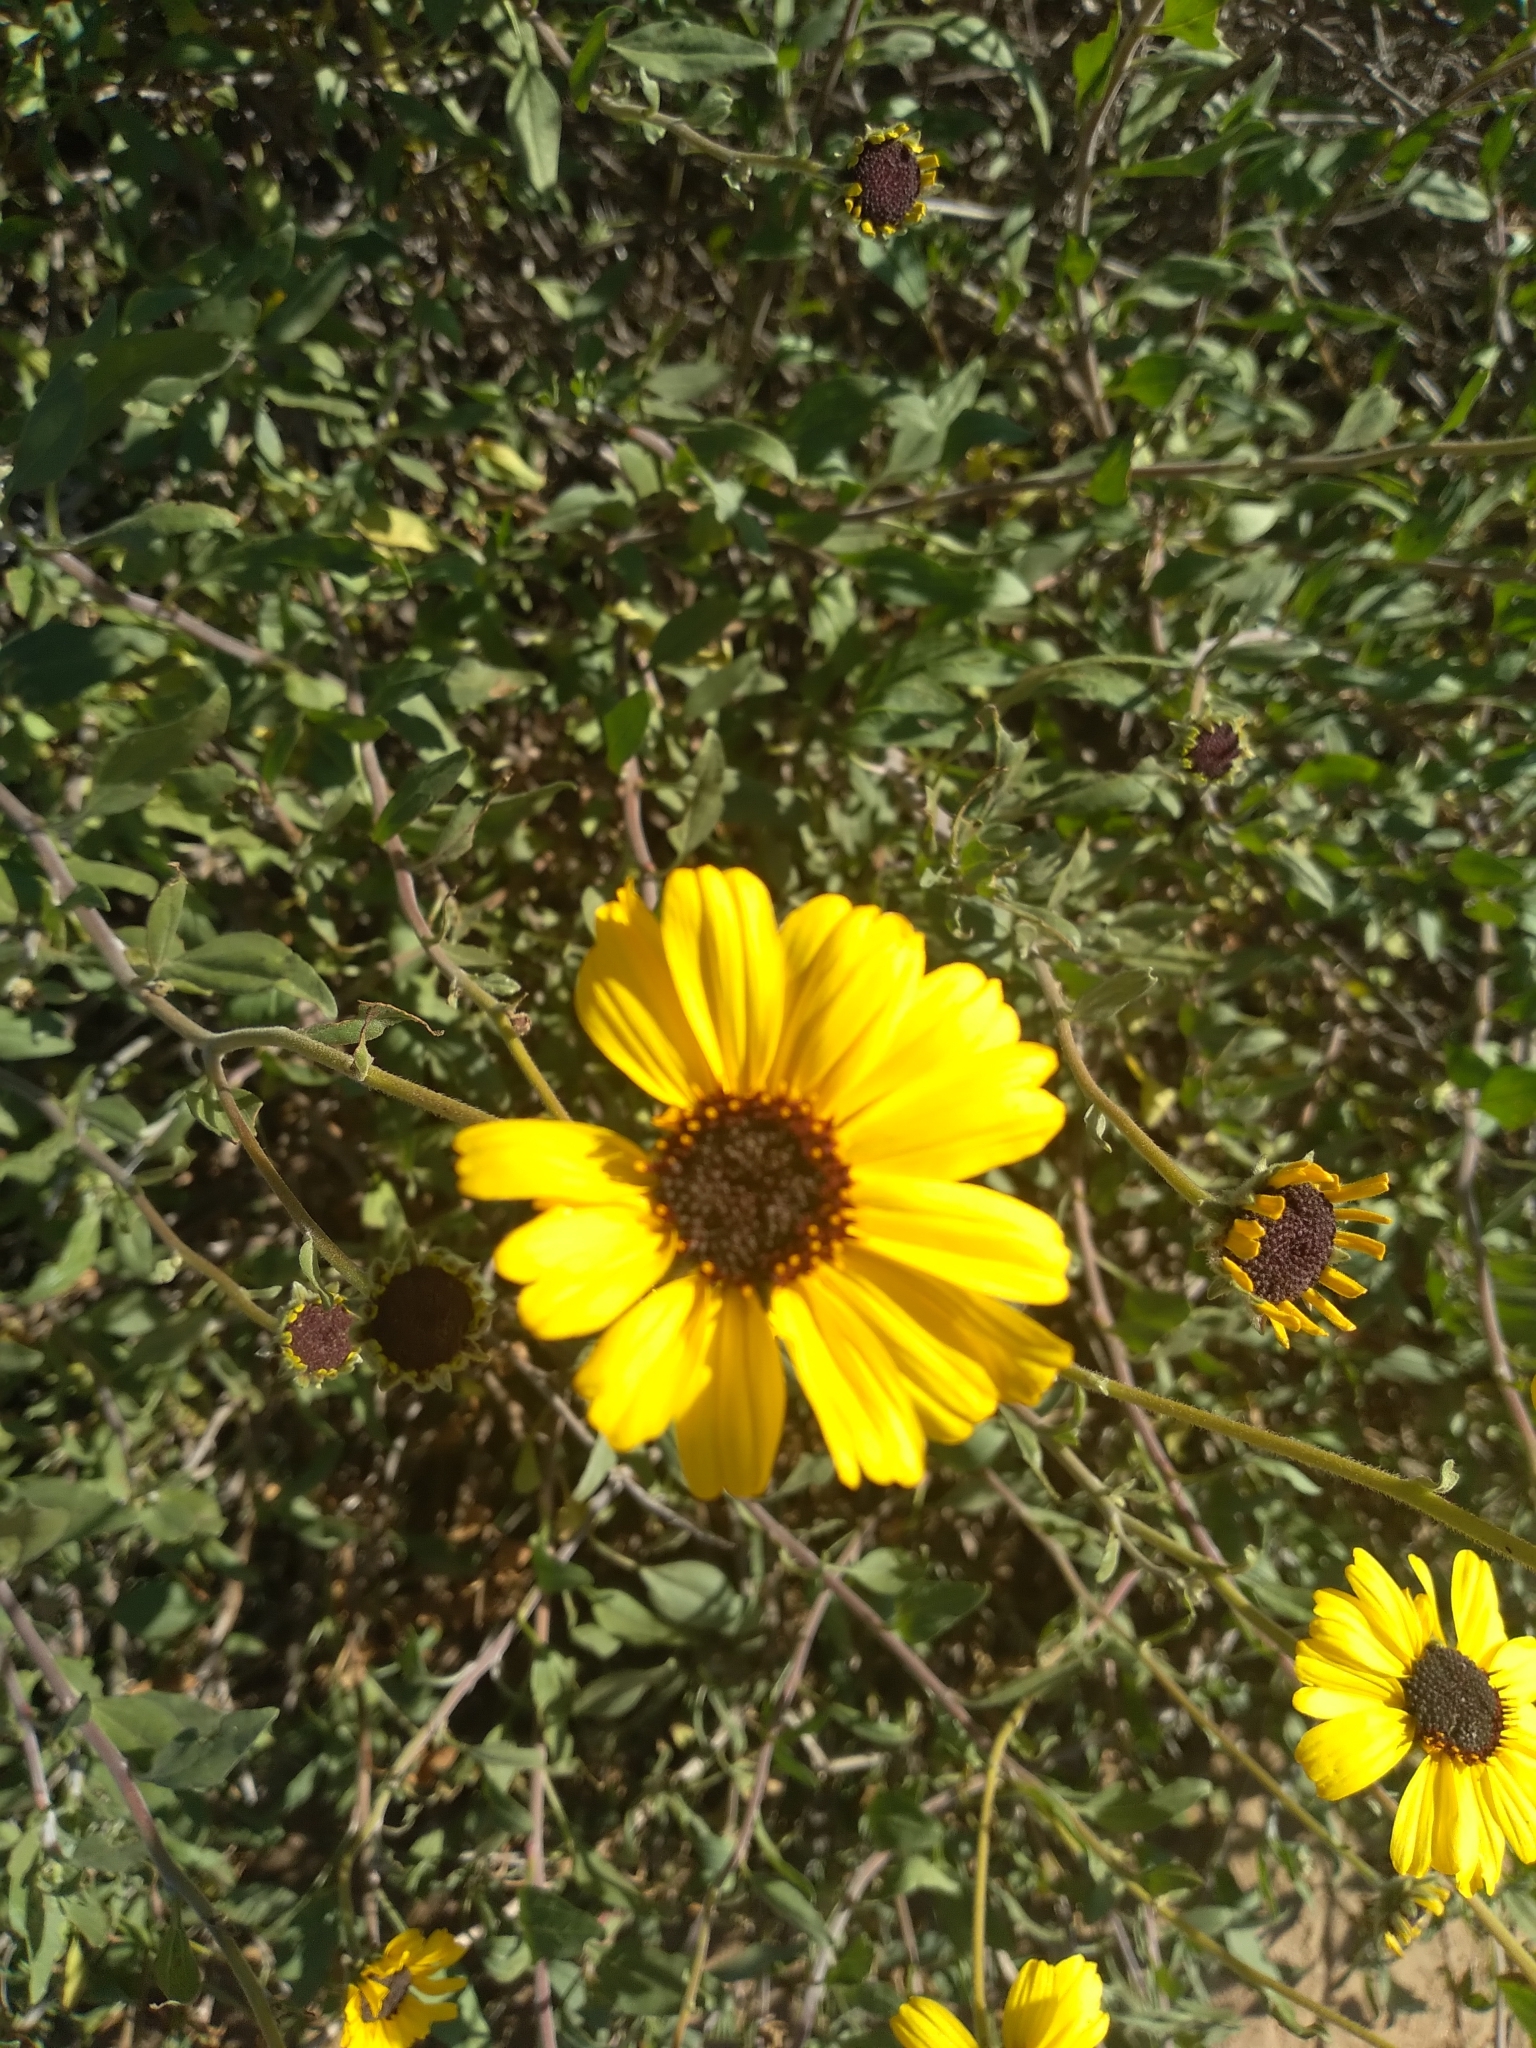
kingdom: Plantae
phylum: Tracheophyta
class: Magnoliopsida
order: Asterales
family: Asteraceae
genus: Encelia
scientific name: Encelia californica
